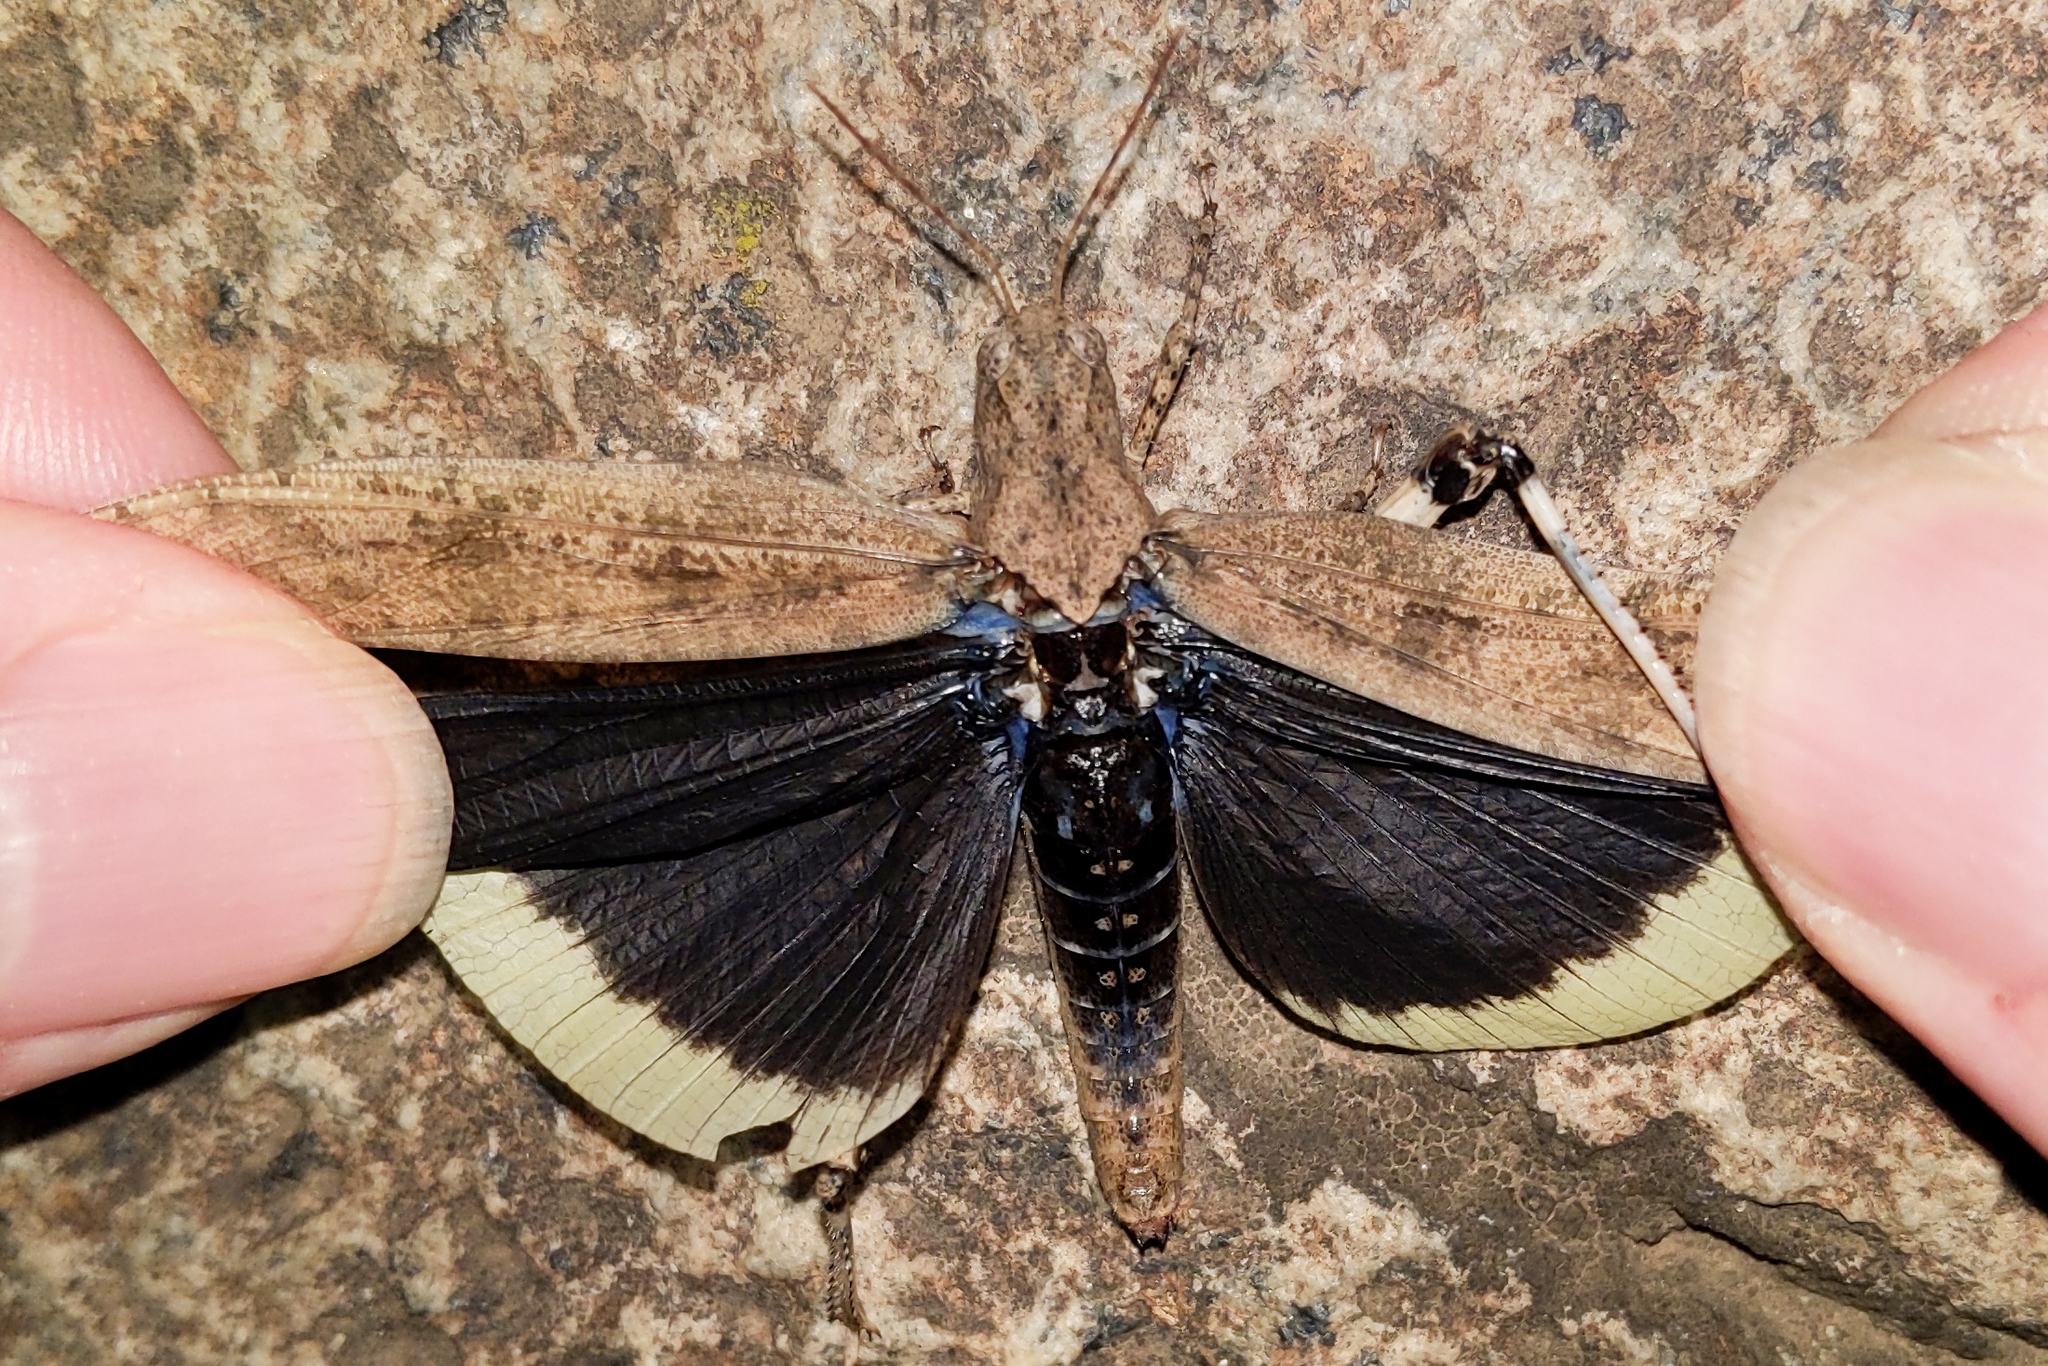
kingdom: Animalia
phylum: Arthropoda
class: Insecta
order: Orthoptera
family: Acrididae
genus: Dissosteira
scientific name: Dissosteira carolina
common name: Carolina grasshopper
